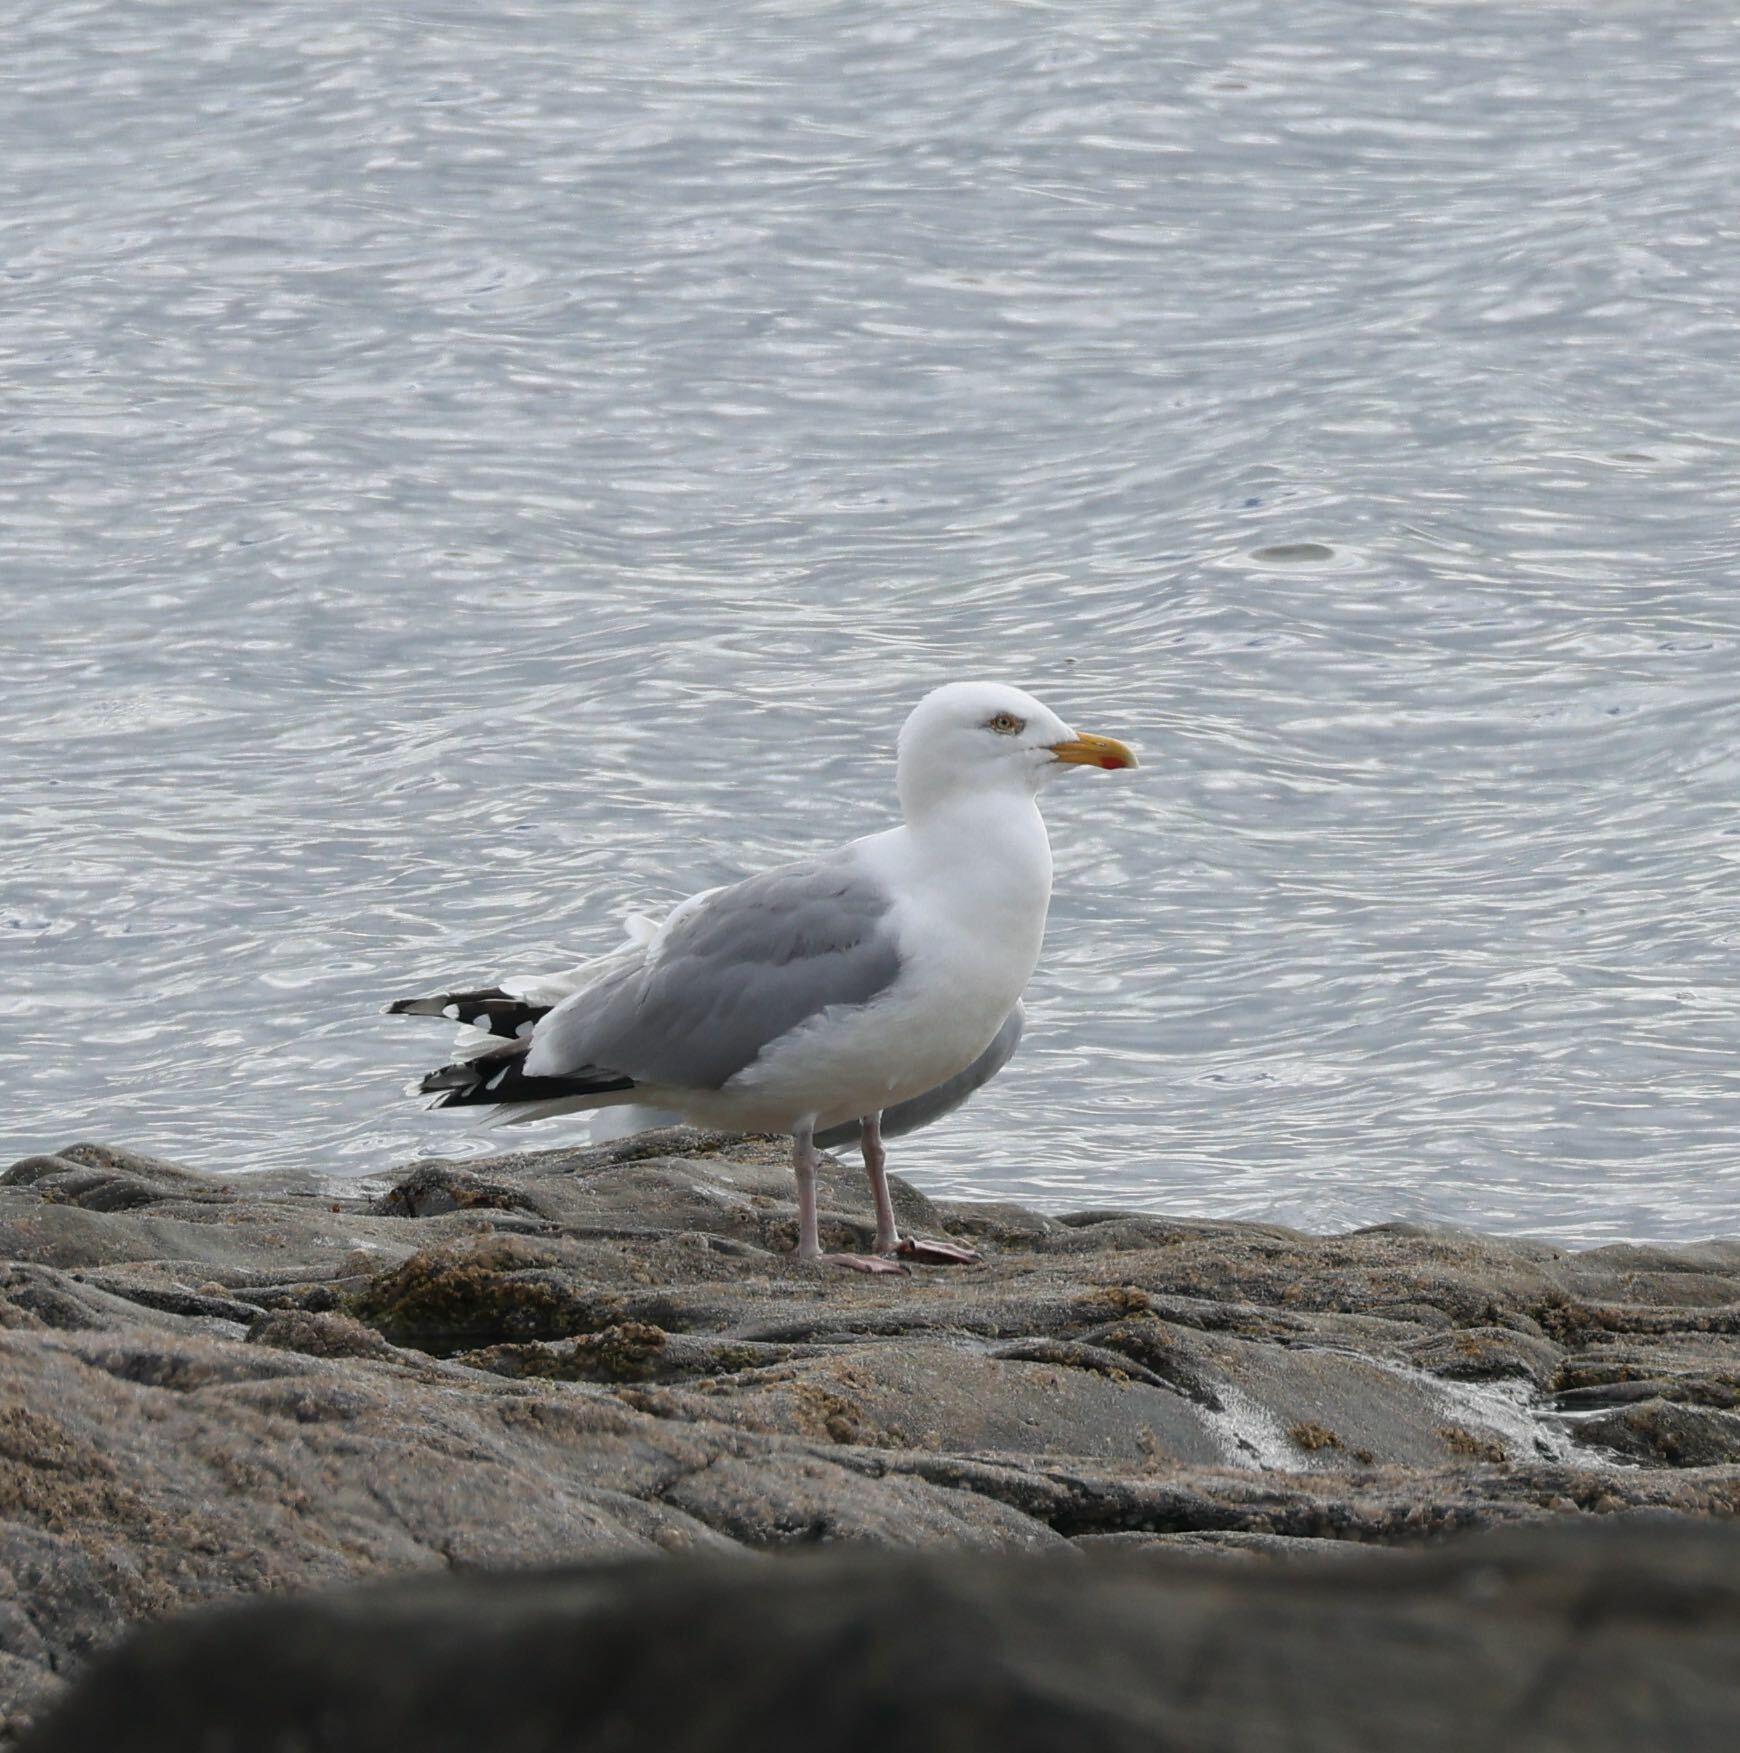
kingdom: Animalia
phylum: Chordata
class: Aves
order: Charadriiformes
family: Laridae
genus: Larus
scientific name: Larus argentatus
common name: Herring gull
